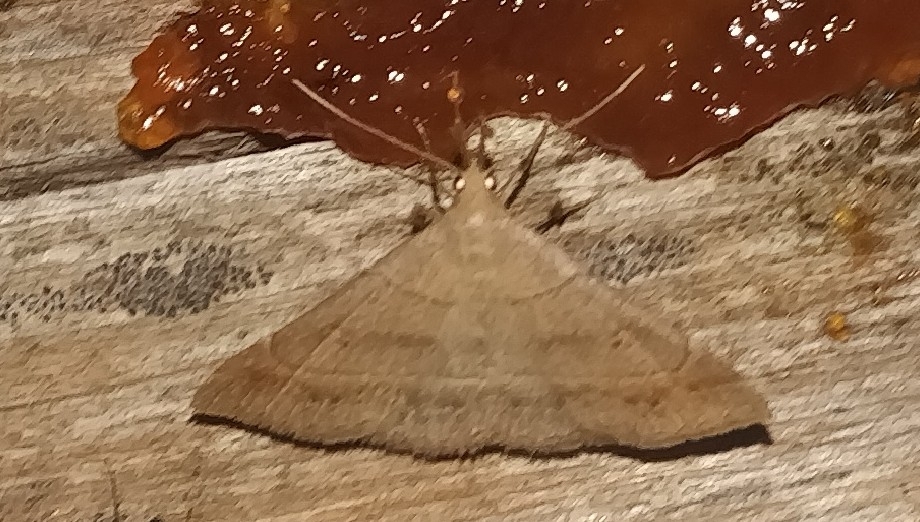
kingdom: Animalia
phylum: Arthropoda
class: Insecta
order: Lepidoptera
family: Erebidae
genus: Renia
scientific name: Renia flavipunctalis
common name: Yellow-spotted renia moth
